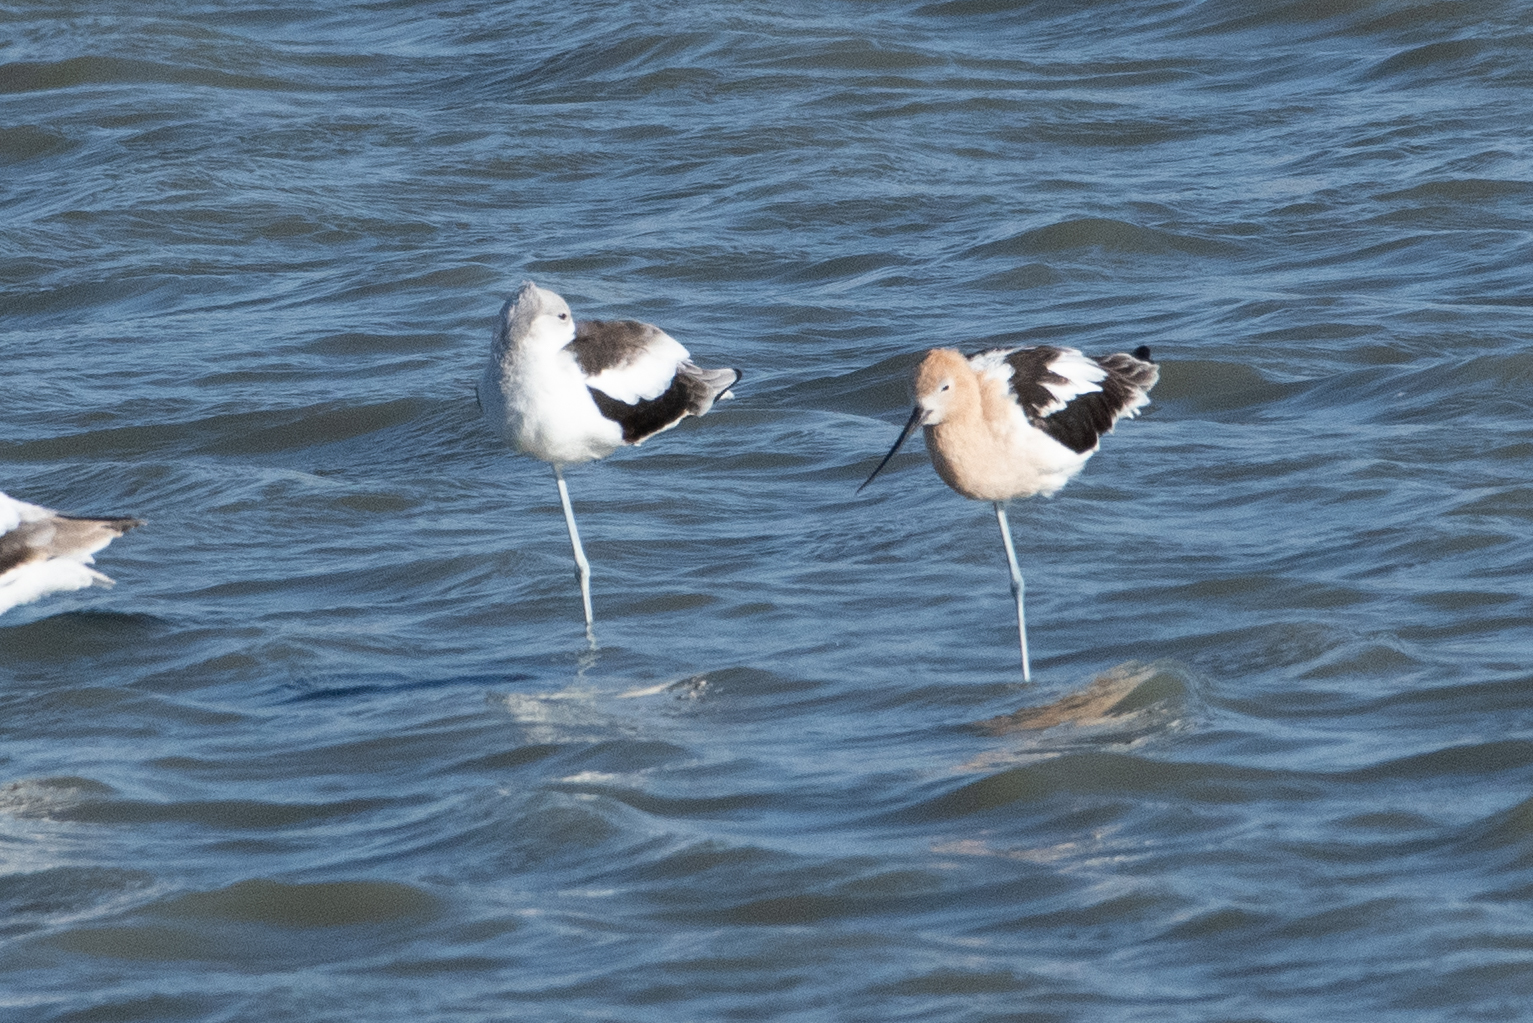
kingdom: Animalia
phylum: Chordata
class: Aves
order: Charadriiformes
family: Recurvirostridae
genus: Recurvirostra
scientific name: Recurvirostra americana
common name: American avocet
